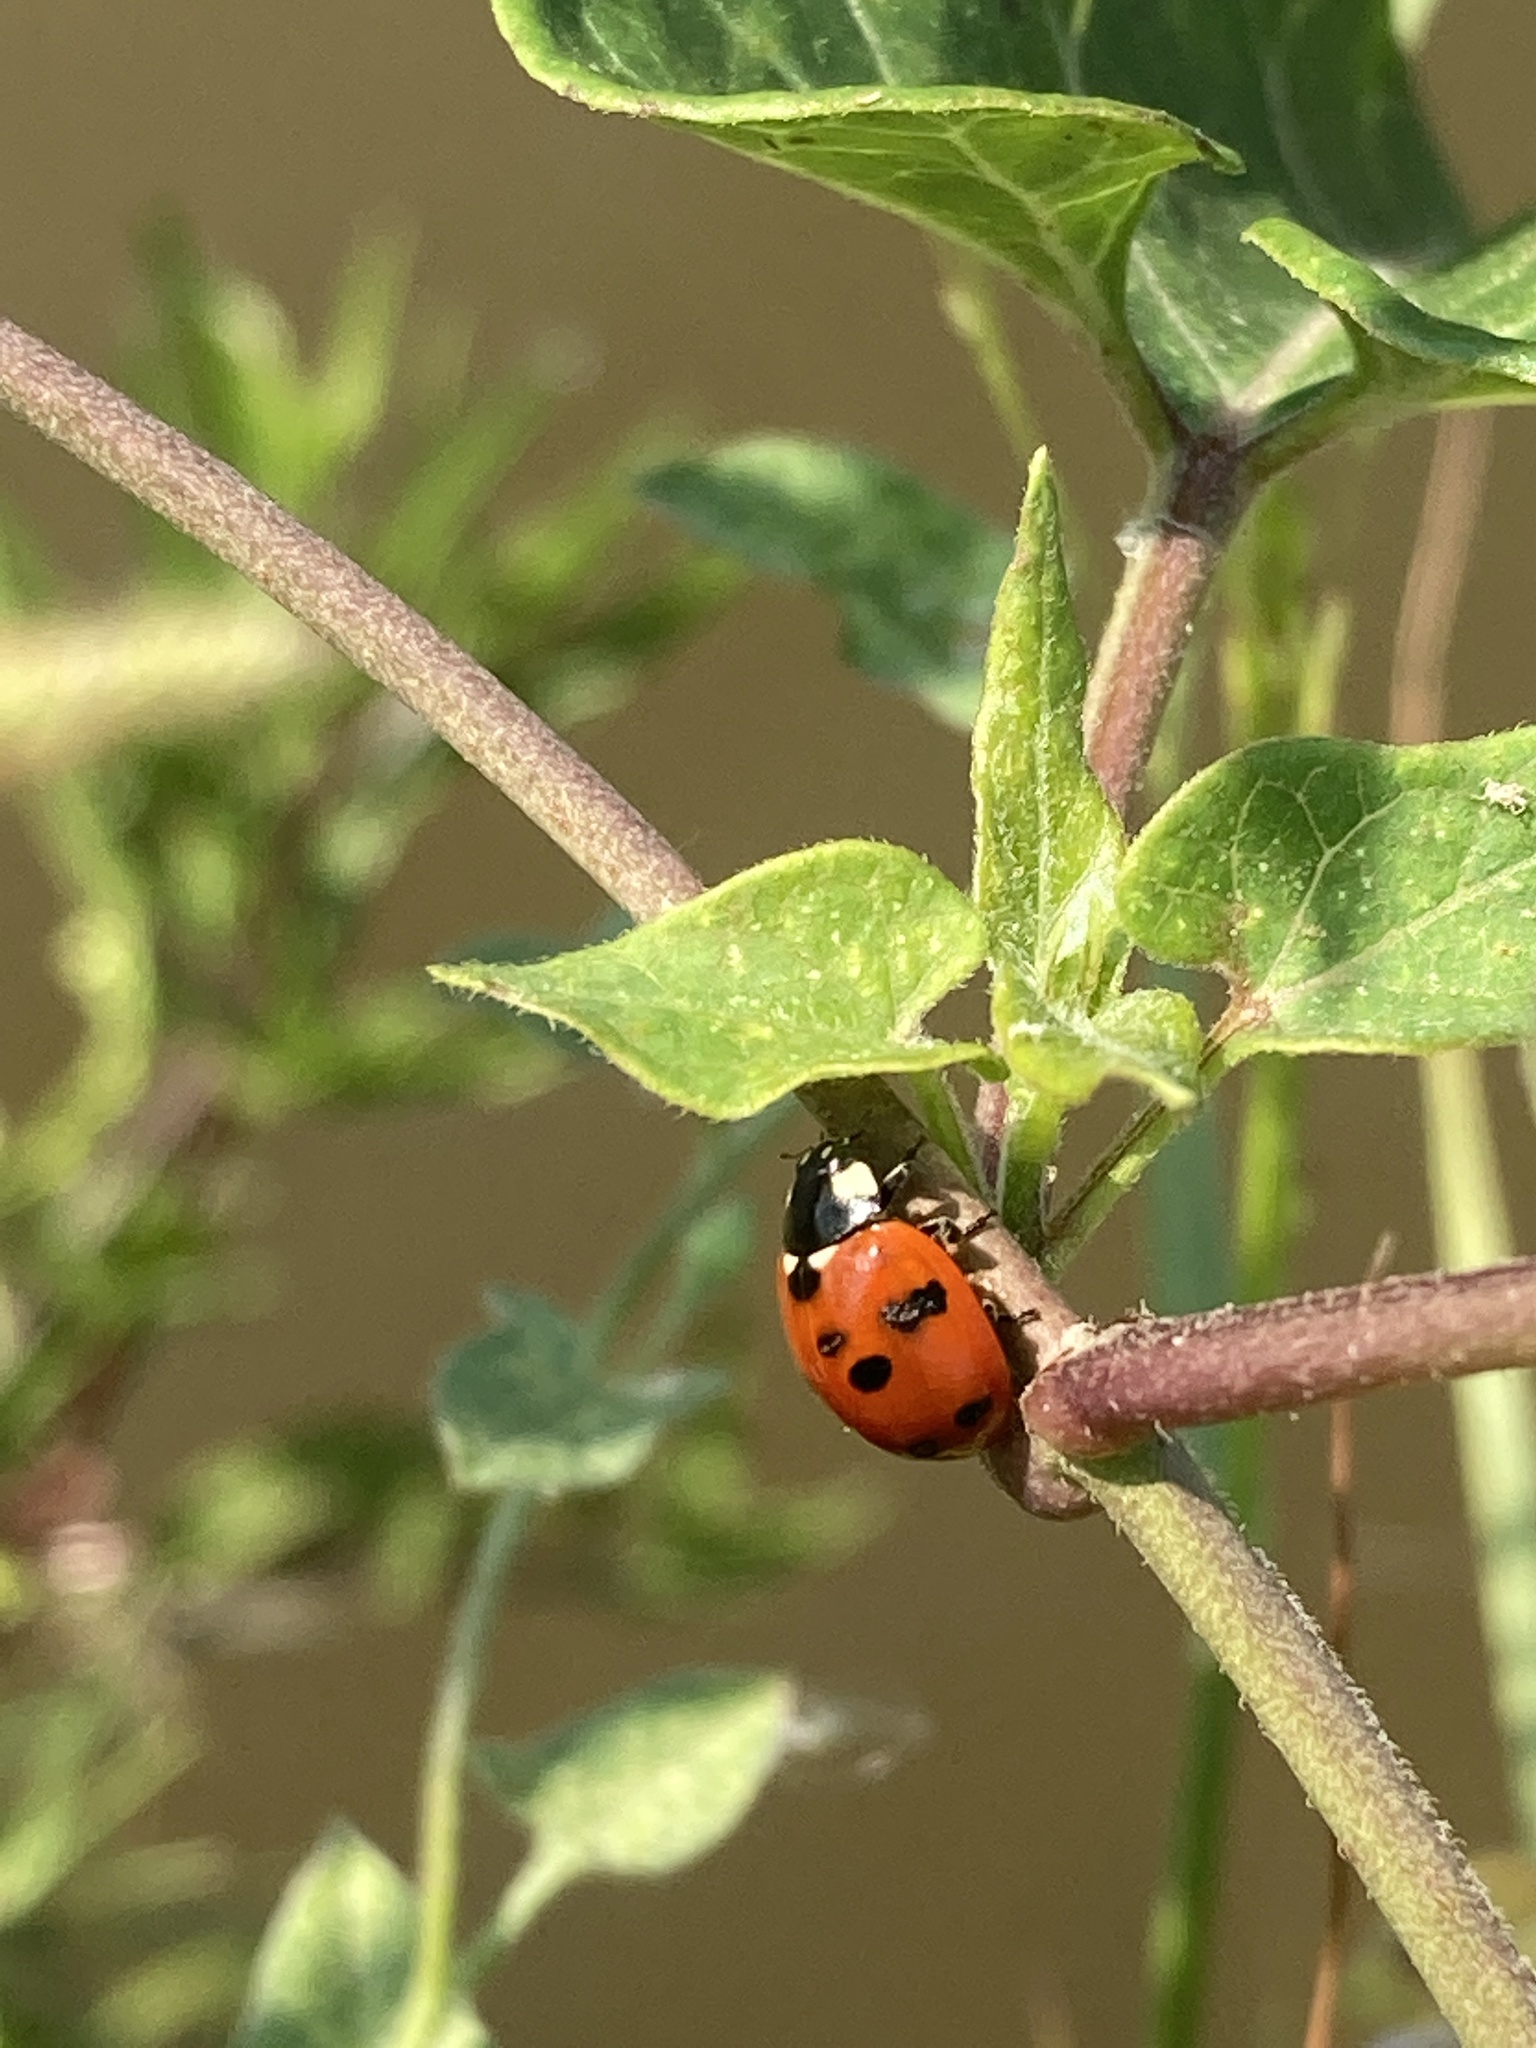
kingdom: Animalia
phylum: Arthropoda
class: Insecta
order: Coleoptera
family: Coccinellidae
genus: Coccinella
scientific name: Coccinella septempunctata
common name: Sevenspotted lady beetle
